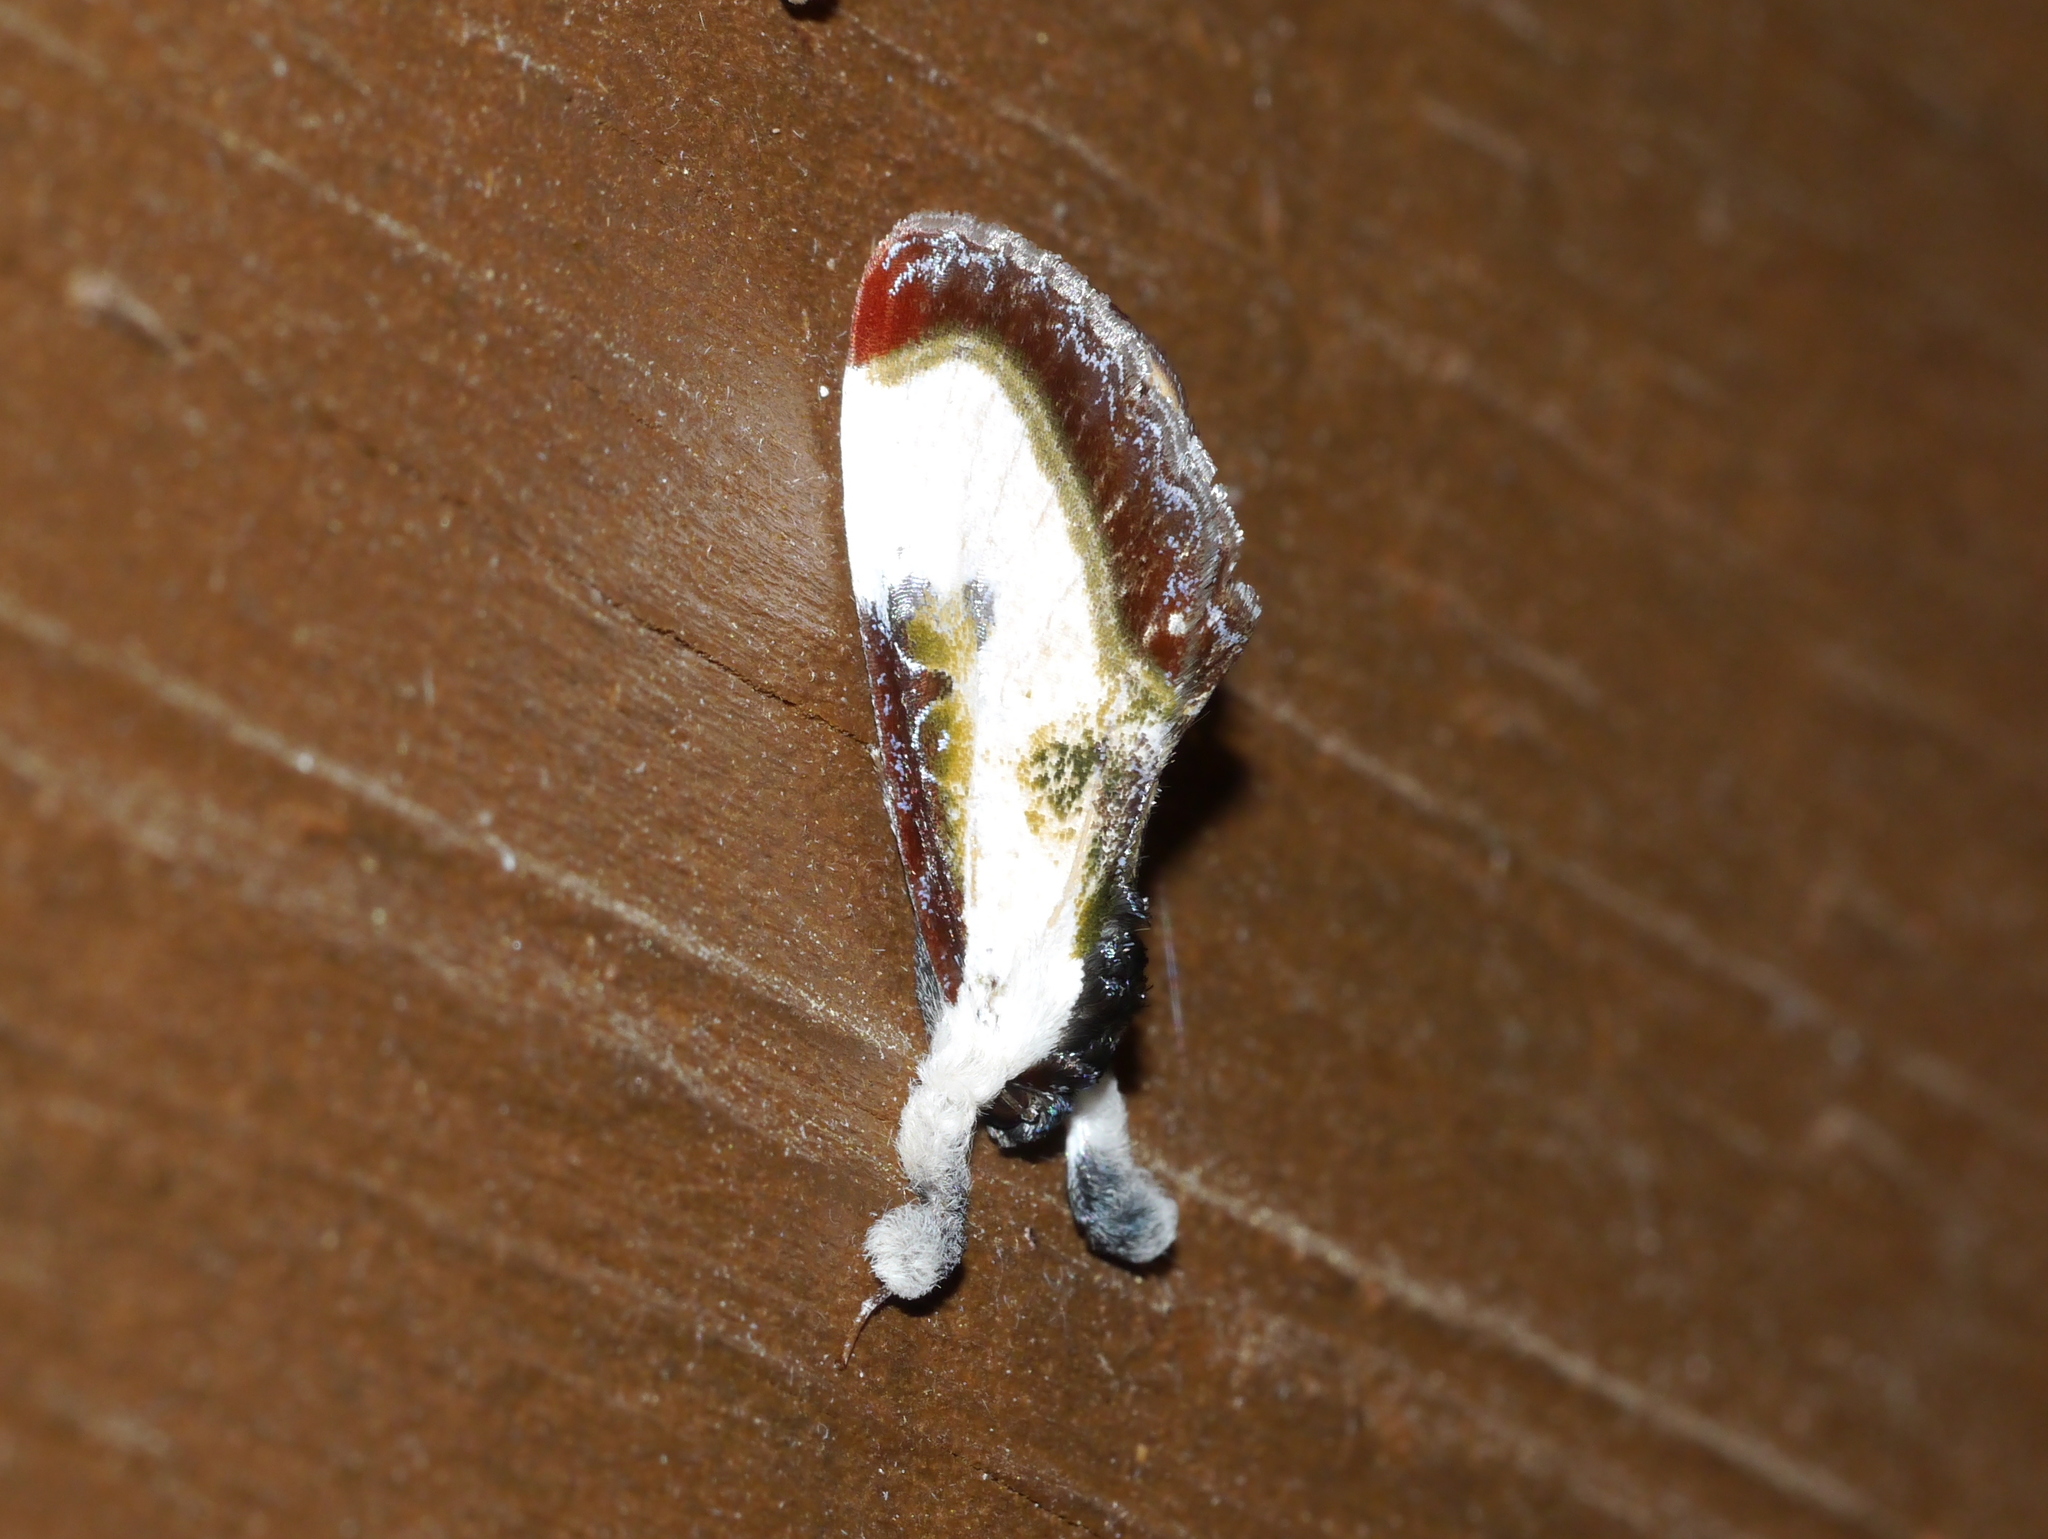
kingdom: Animalia
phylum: Arthropoda
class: Insecta
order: Lepidoptera
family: Noctuidae
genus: Eudryas
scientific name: Eudryas grata
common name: Beautiful wood-nymph
